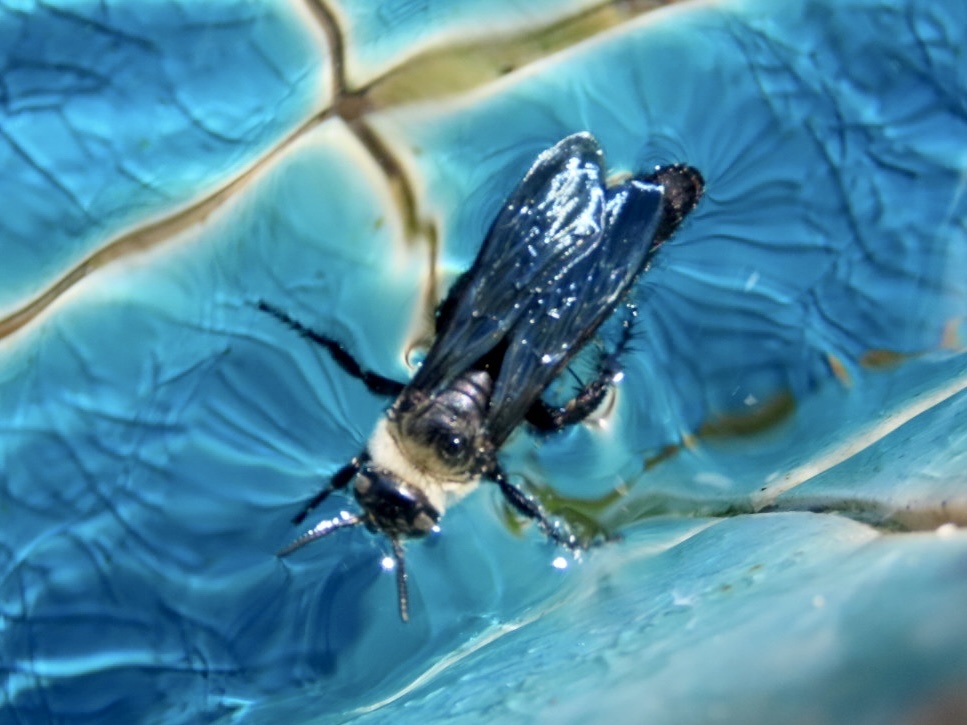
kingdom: Animalia
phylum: Arthropoda
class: Insecta
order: Hymenoptera
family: Scoliidae
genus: Campsomeriella
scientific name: Campsomeriella collaris
